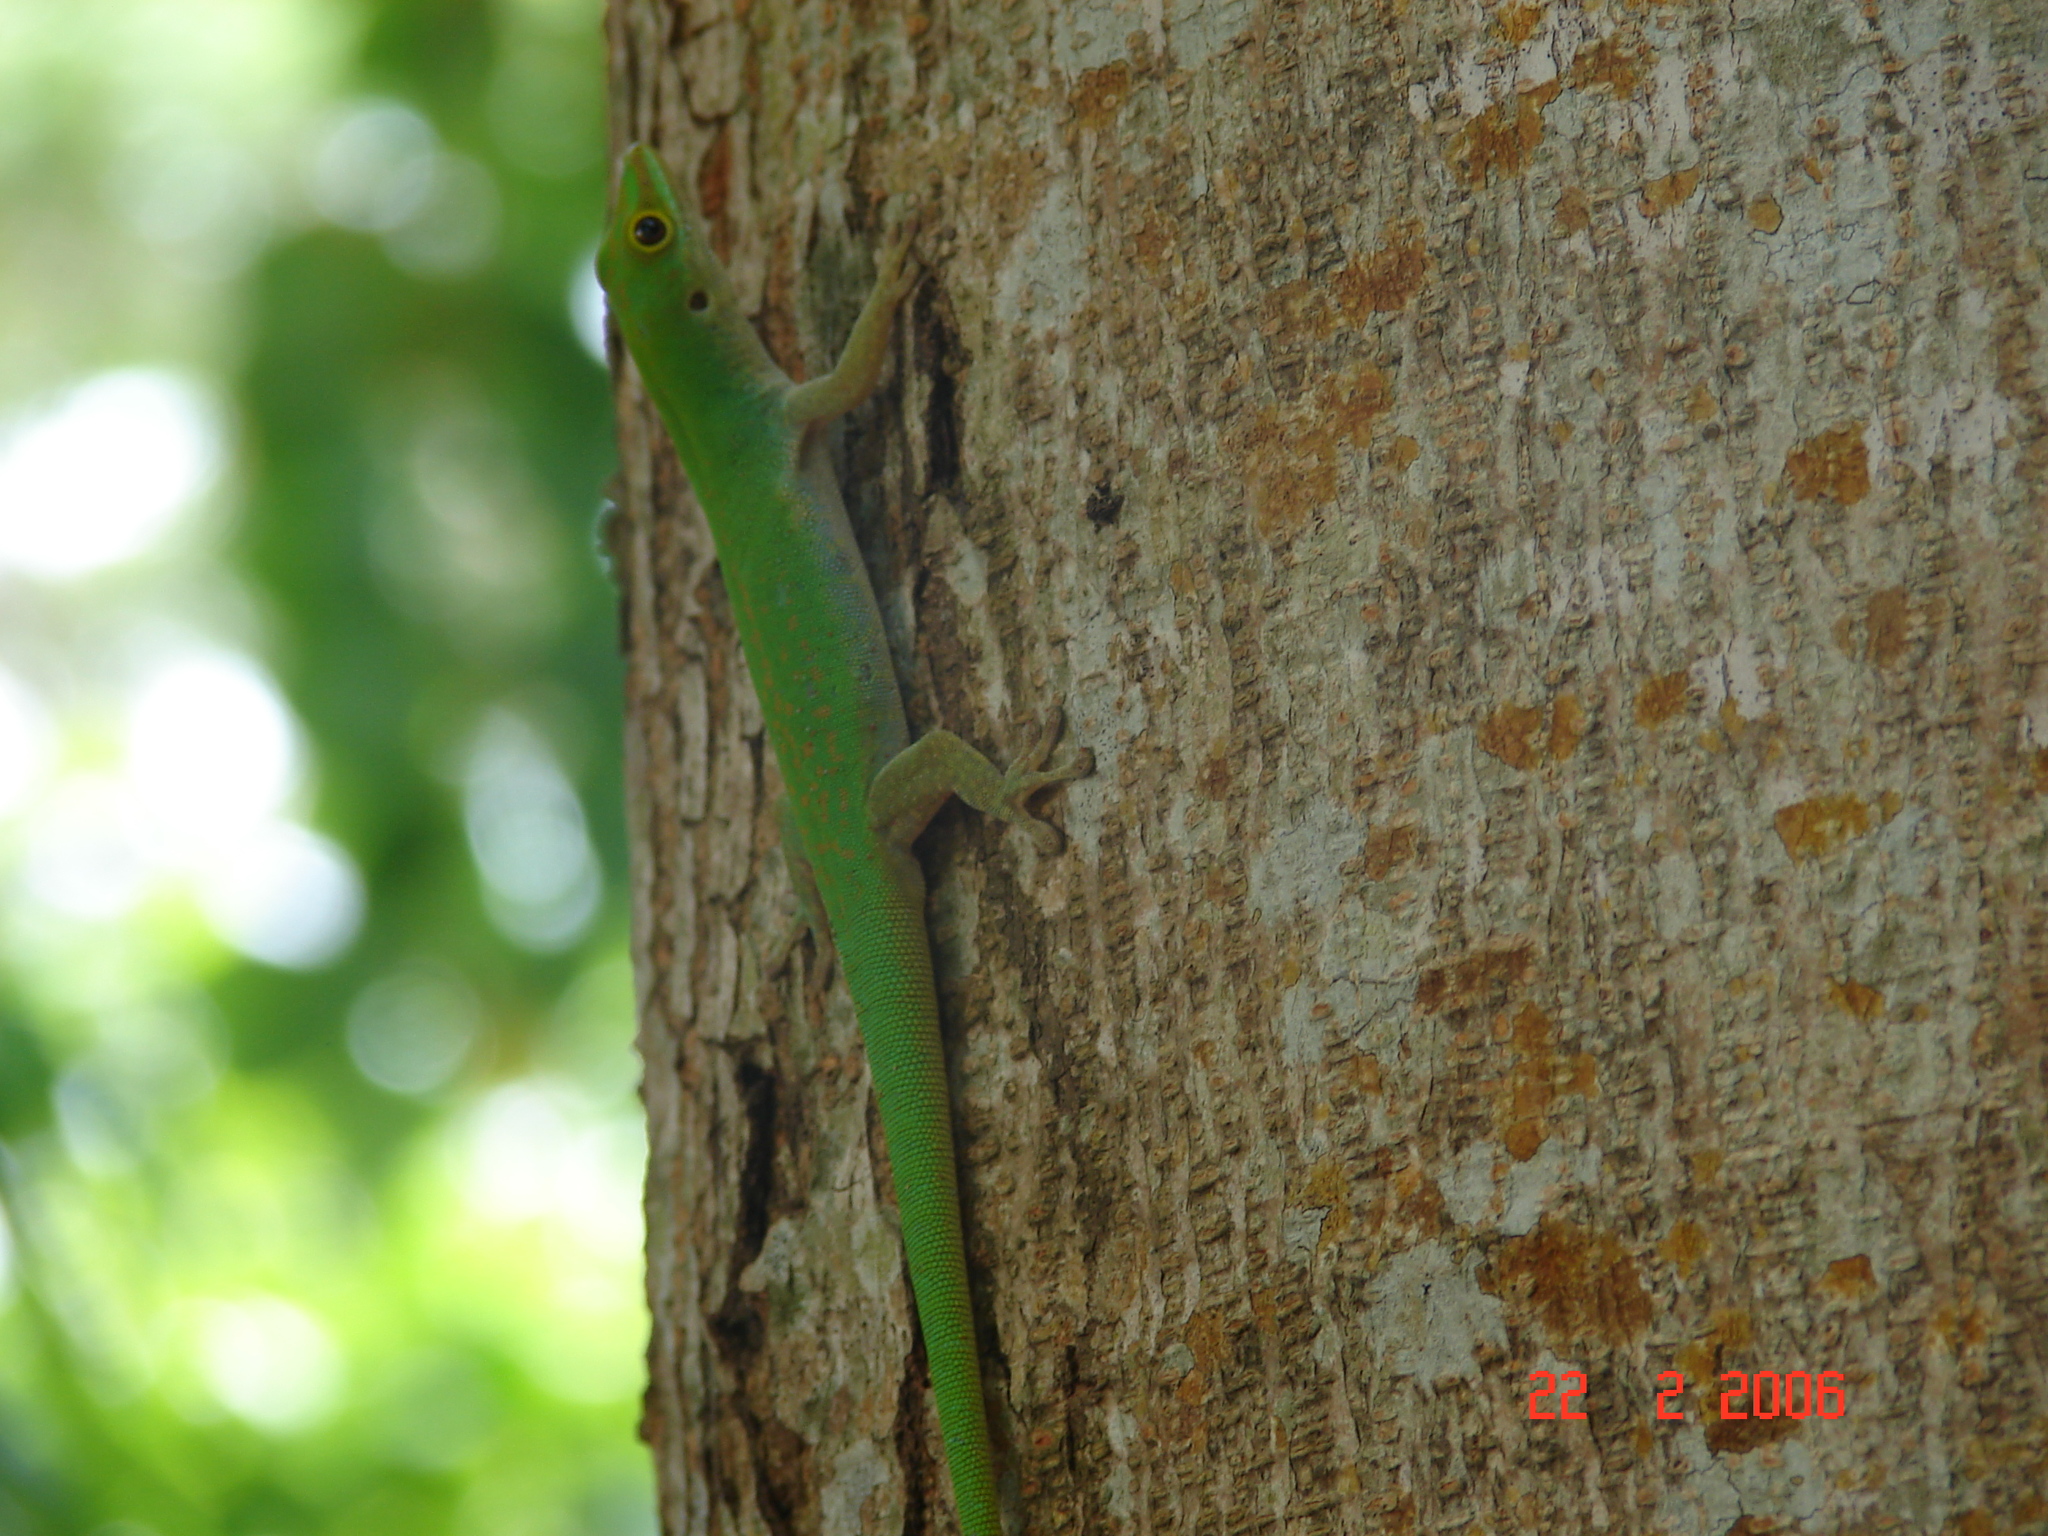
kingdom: Animalia
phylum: Chordata
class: Squamata
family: Gekkonidae
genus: Phelsuma
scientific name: Phelsuma astriata
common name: Seychelles day gecko
